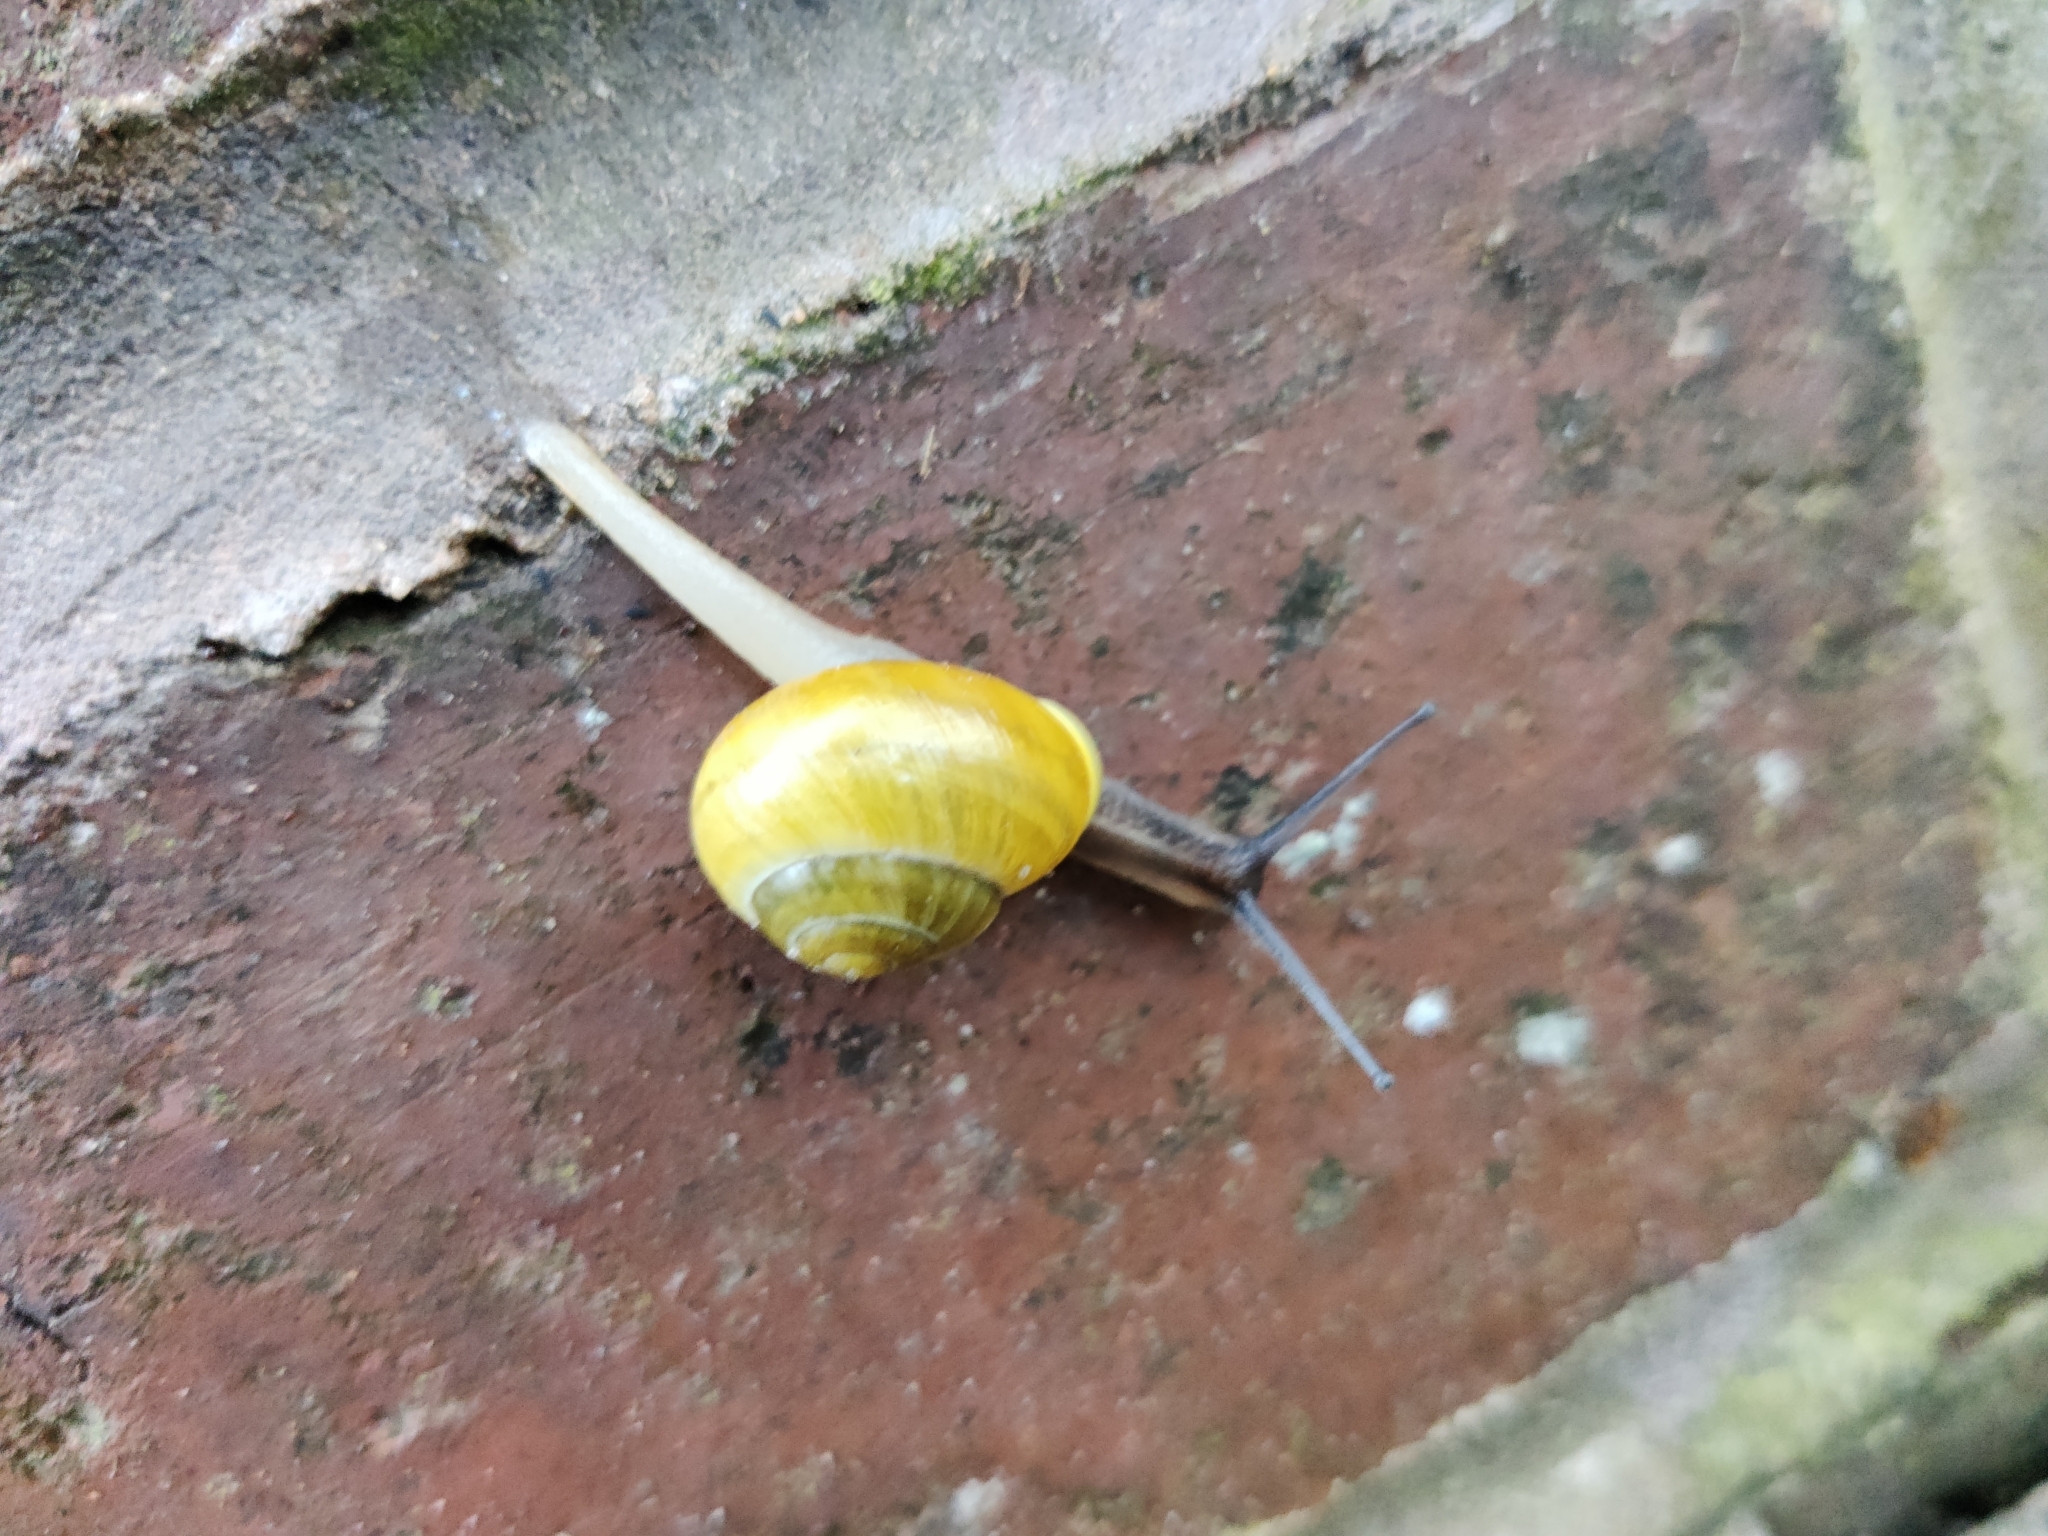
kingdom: Animalia
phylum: Mollusca
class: Gastropoda
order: Stylommatophora
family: Helicidae
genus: Cepaea
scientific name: Cepaea hortensis
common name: White-lip gardensnail
